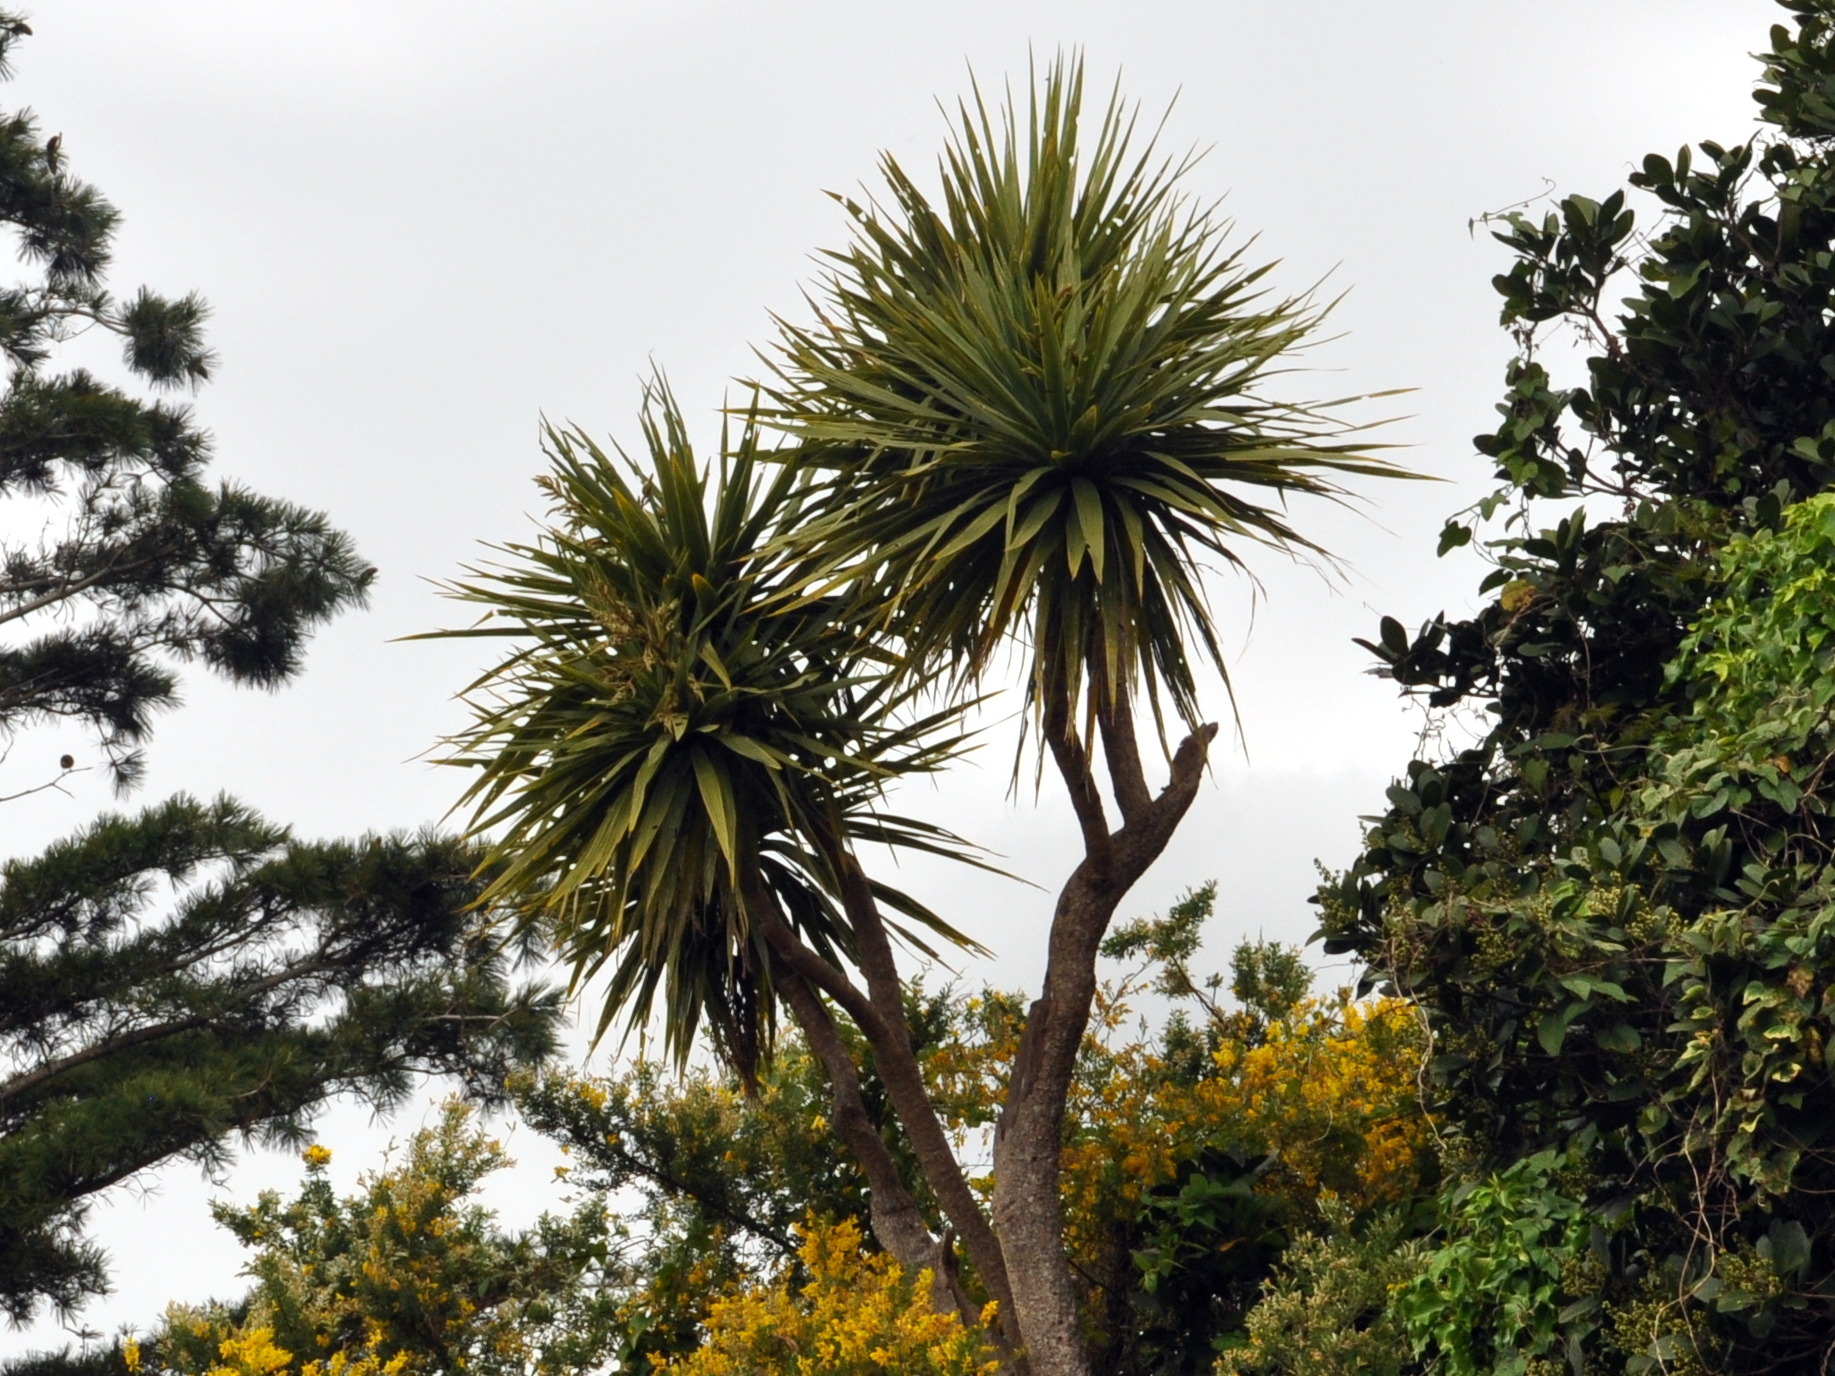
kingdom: Plantae
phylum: Tracheophyta
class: Liliopsida
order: Asparagales
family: Asparagaceae
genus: Cordyline
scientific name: Cordyline australis
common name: Cabbage-palm
